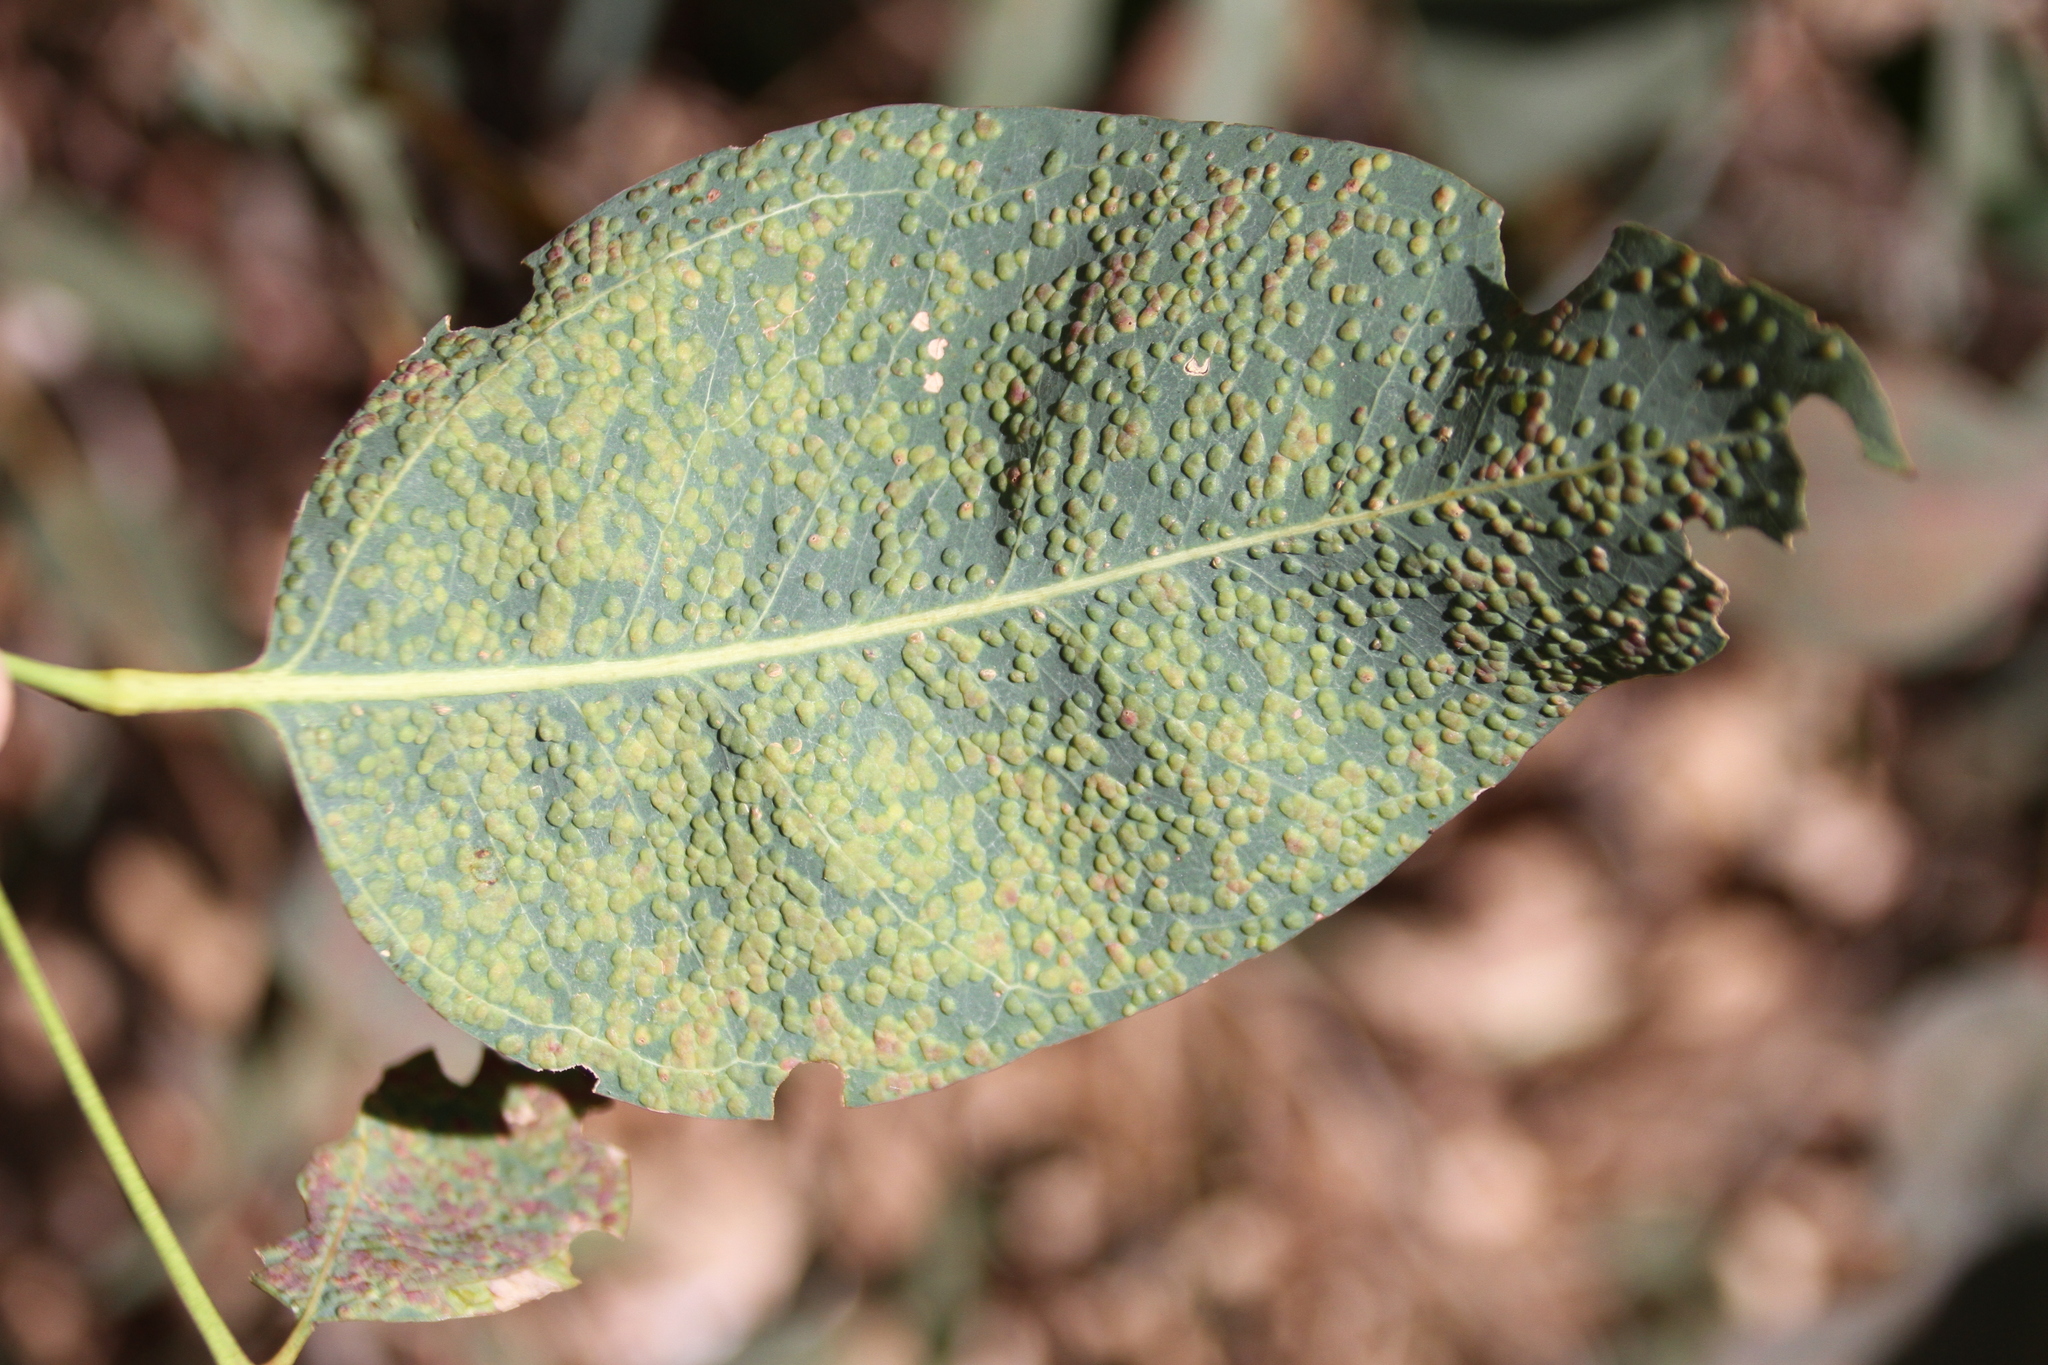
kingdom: Animalia
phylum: Arthropoda
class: Insecta
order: Hymenoptera
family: Eulophidae
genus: Ophelimus
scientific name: Ophelimus maskelli
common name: Gall wasp
